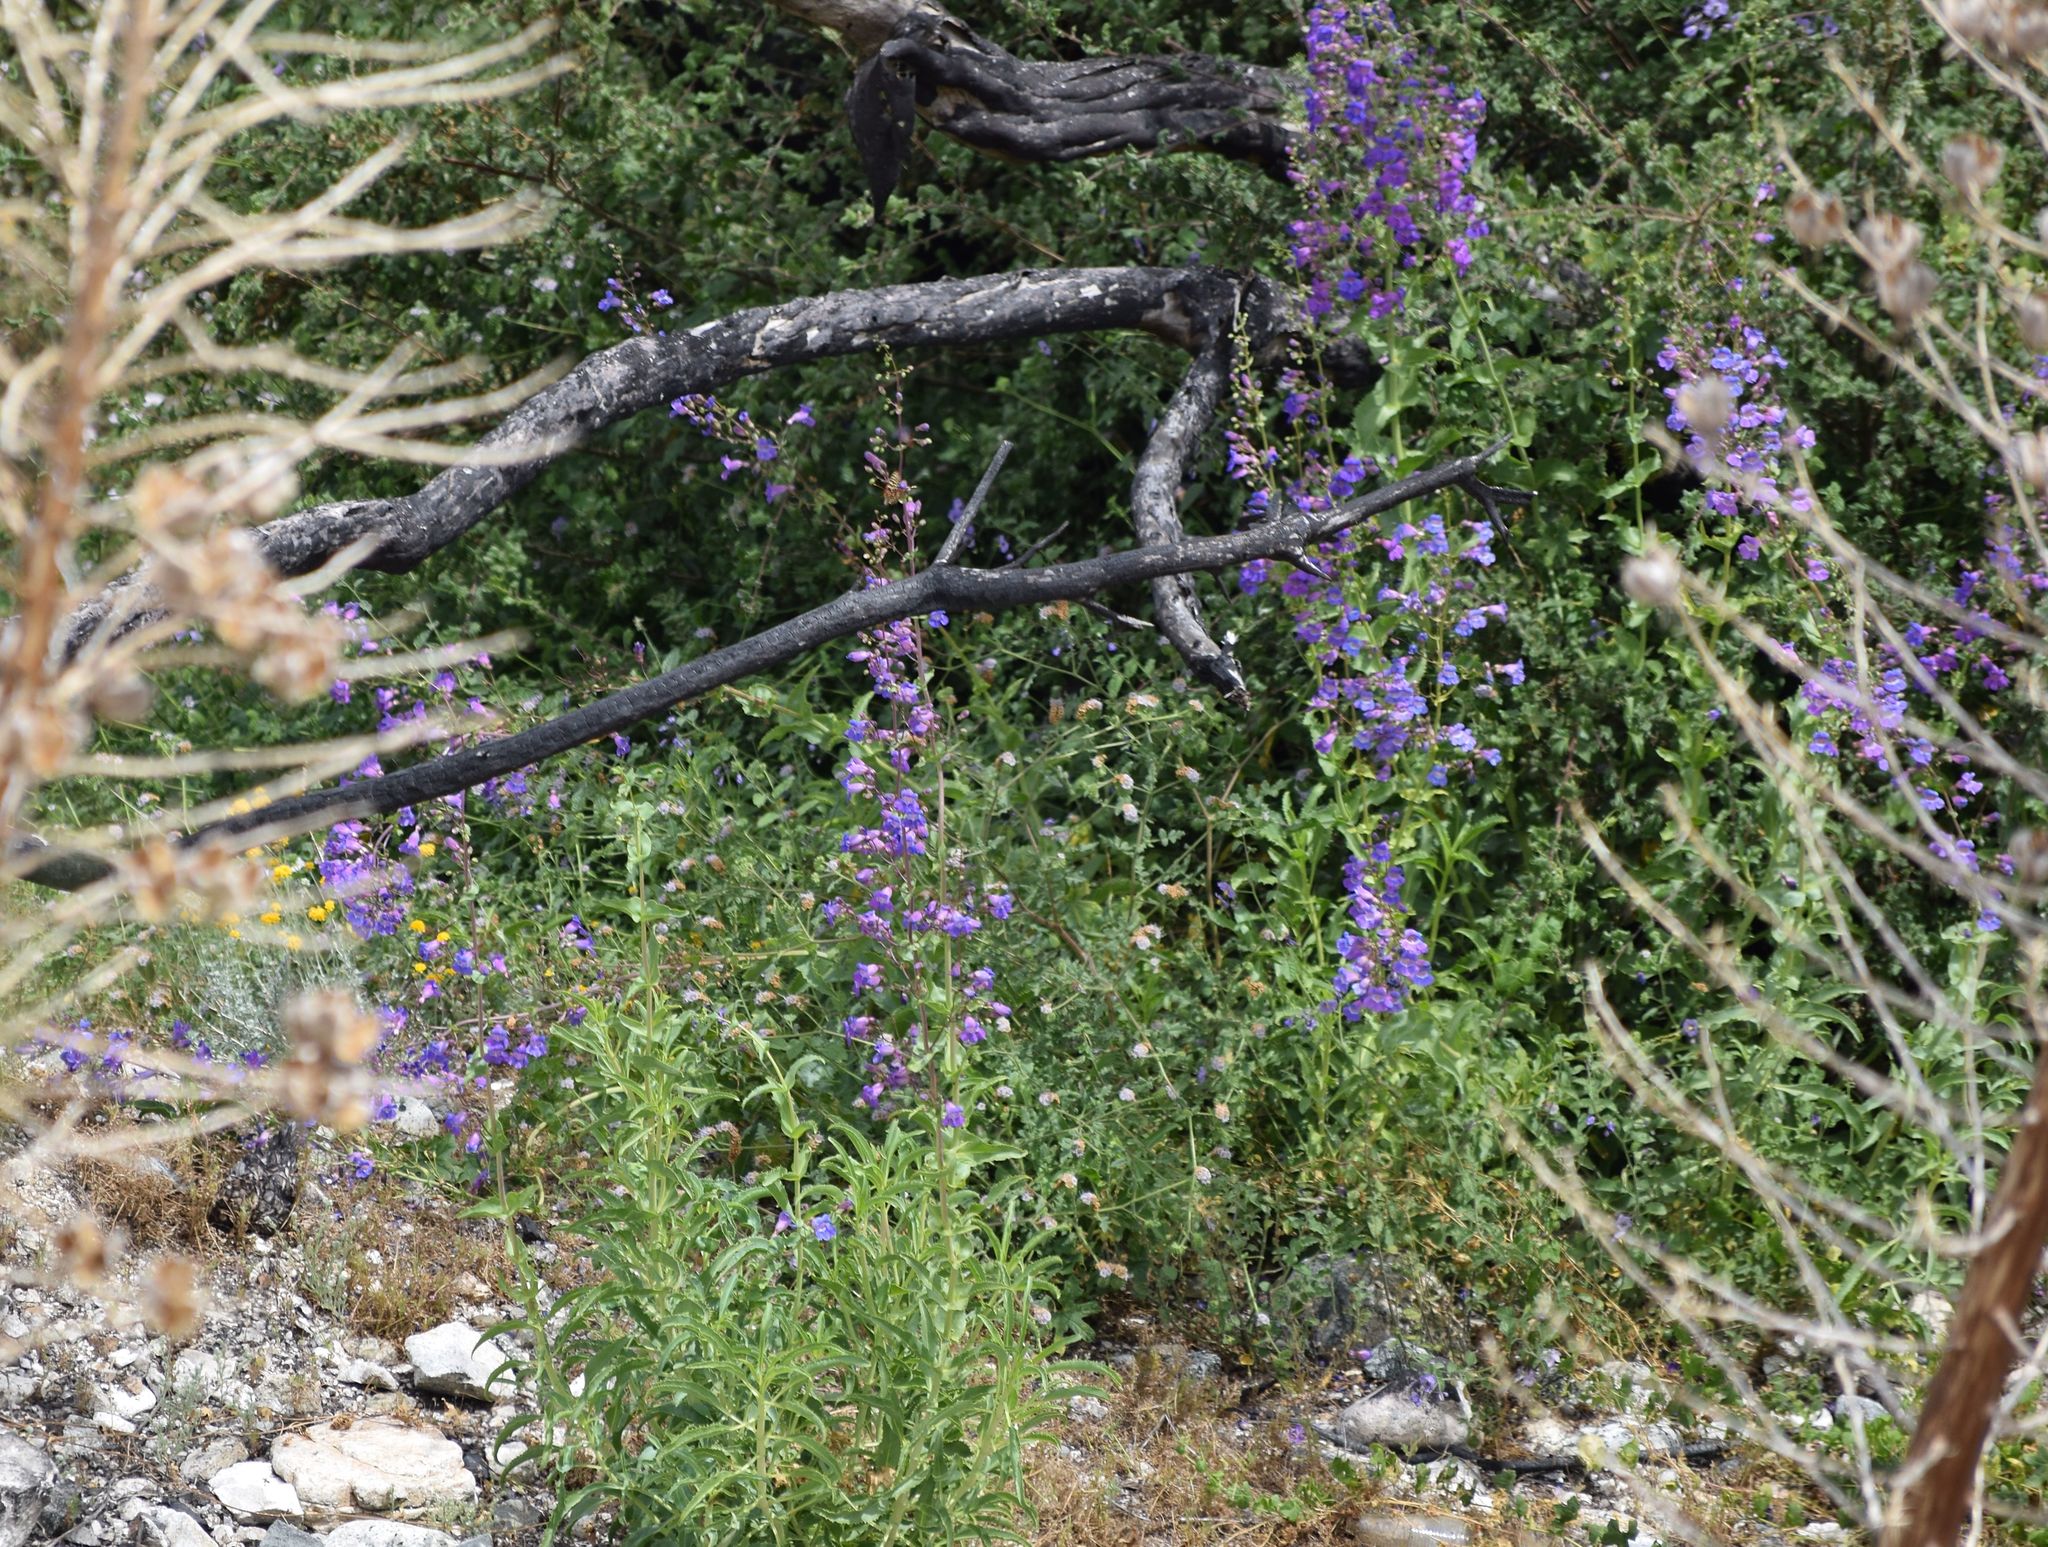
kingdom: Plantae
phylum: Tracheophyta
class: Magnoliopsida
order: Lamiales
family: Plantaginaceae
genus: Penstemon
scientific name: Penstemon spectabilis
